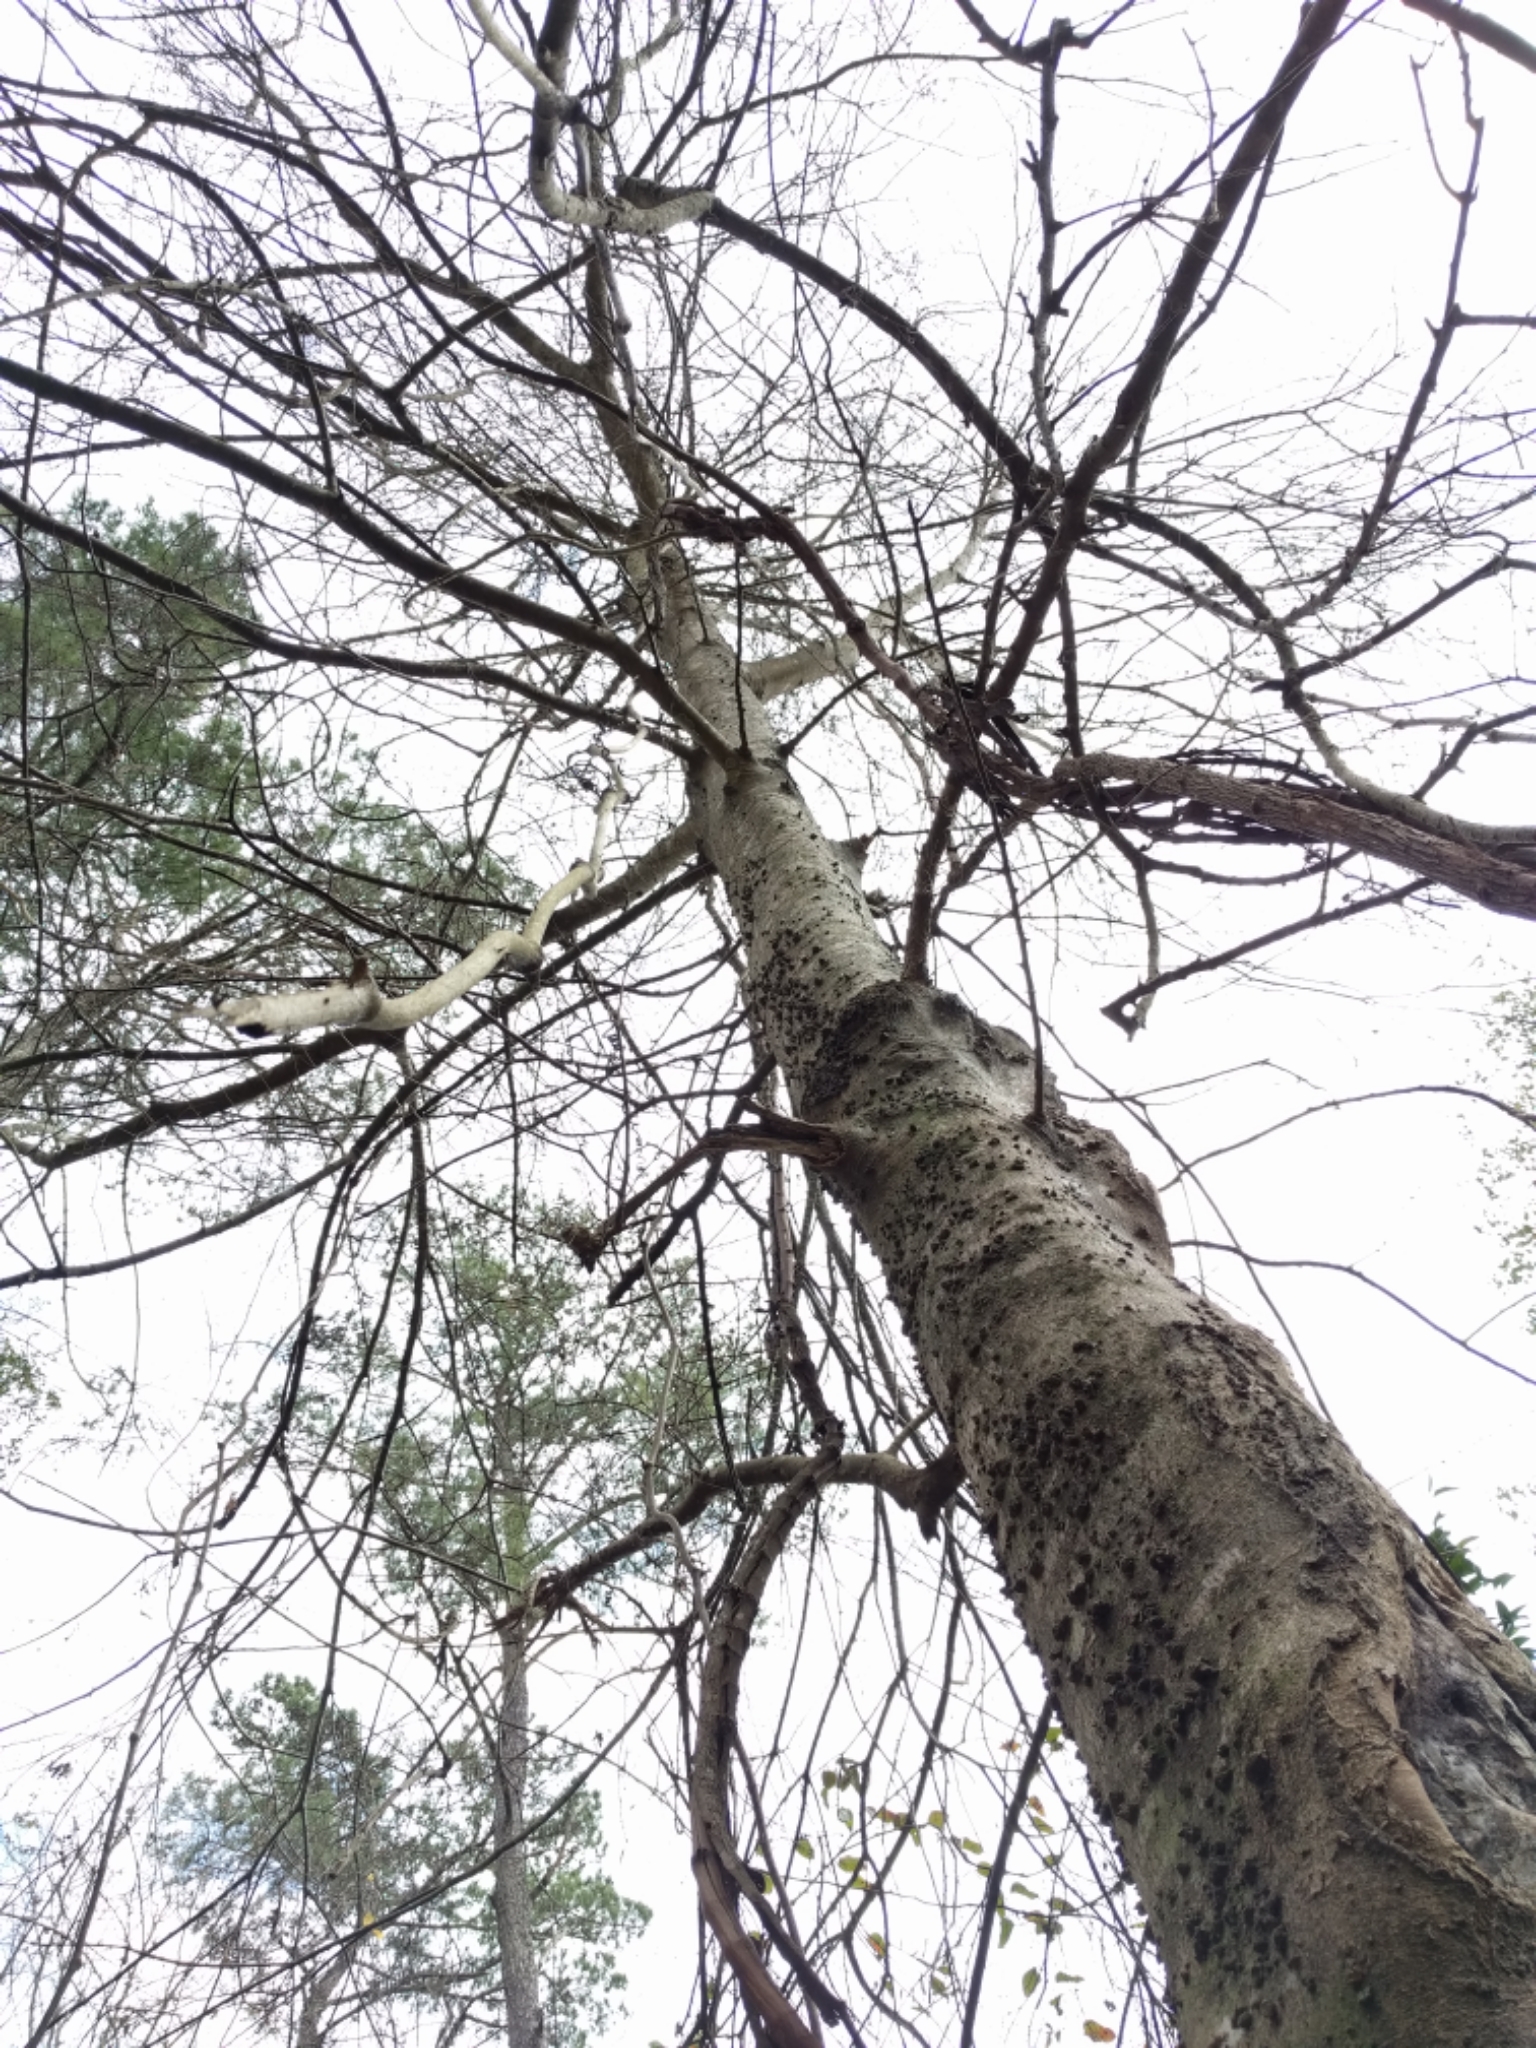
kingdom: Plantae
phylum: Tracheophyta
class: Magnoliopsida
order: Rosales
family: Cannabaceae
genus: Celtis
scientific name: Celtis laevigata
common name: Sugarberry
